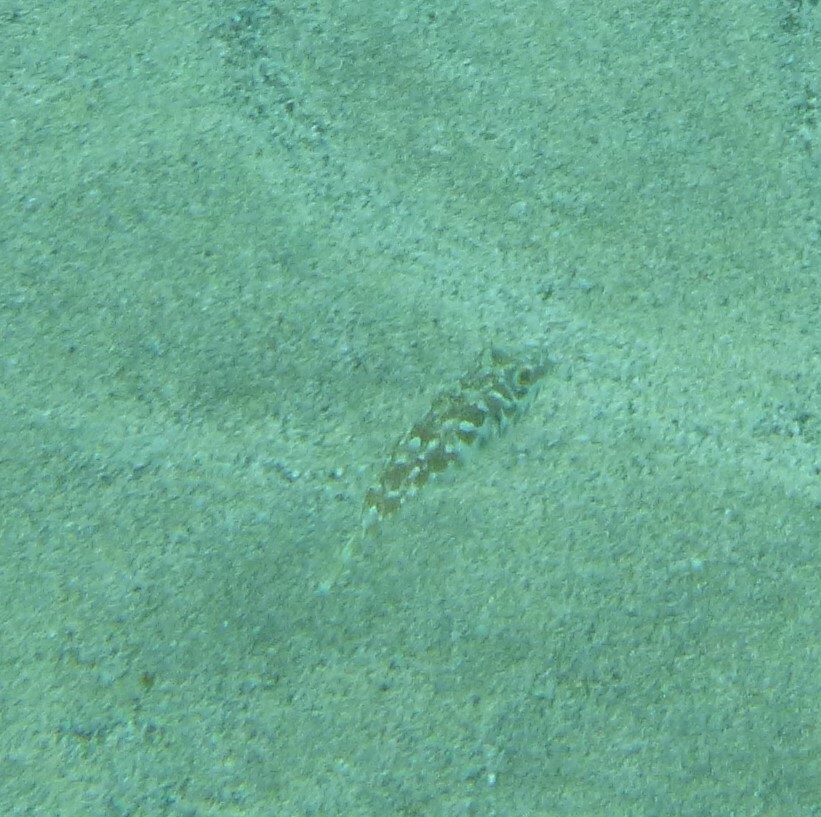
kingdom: Animalia
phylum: Chordata
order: Tetraodontiformes
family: Tetraodontidae
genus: Sphoeroides
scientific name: Sphoeroides marmoratus
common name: Guinean puffer
